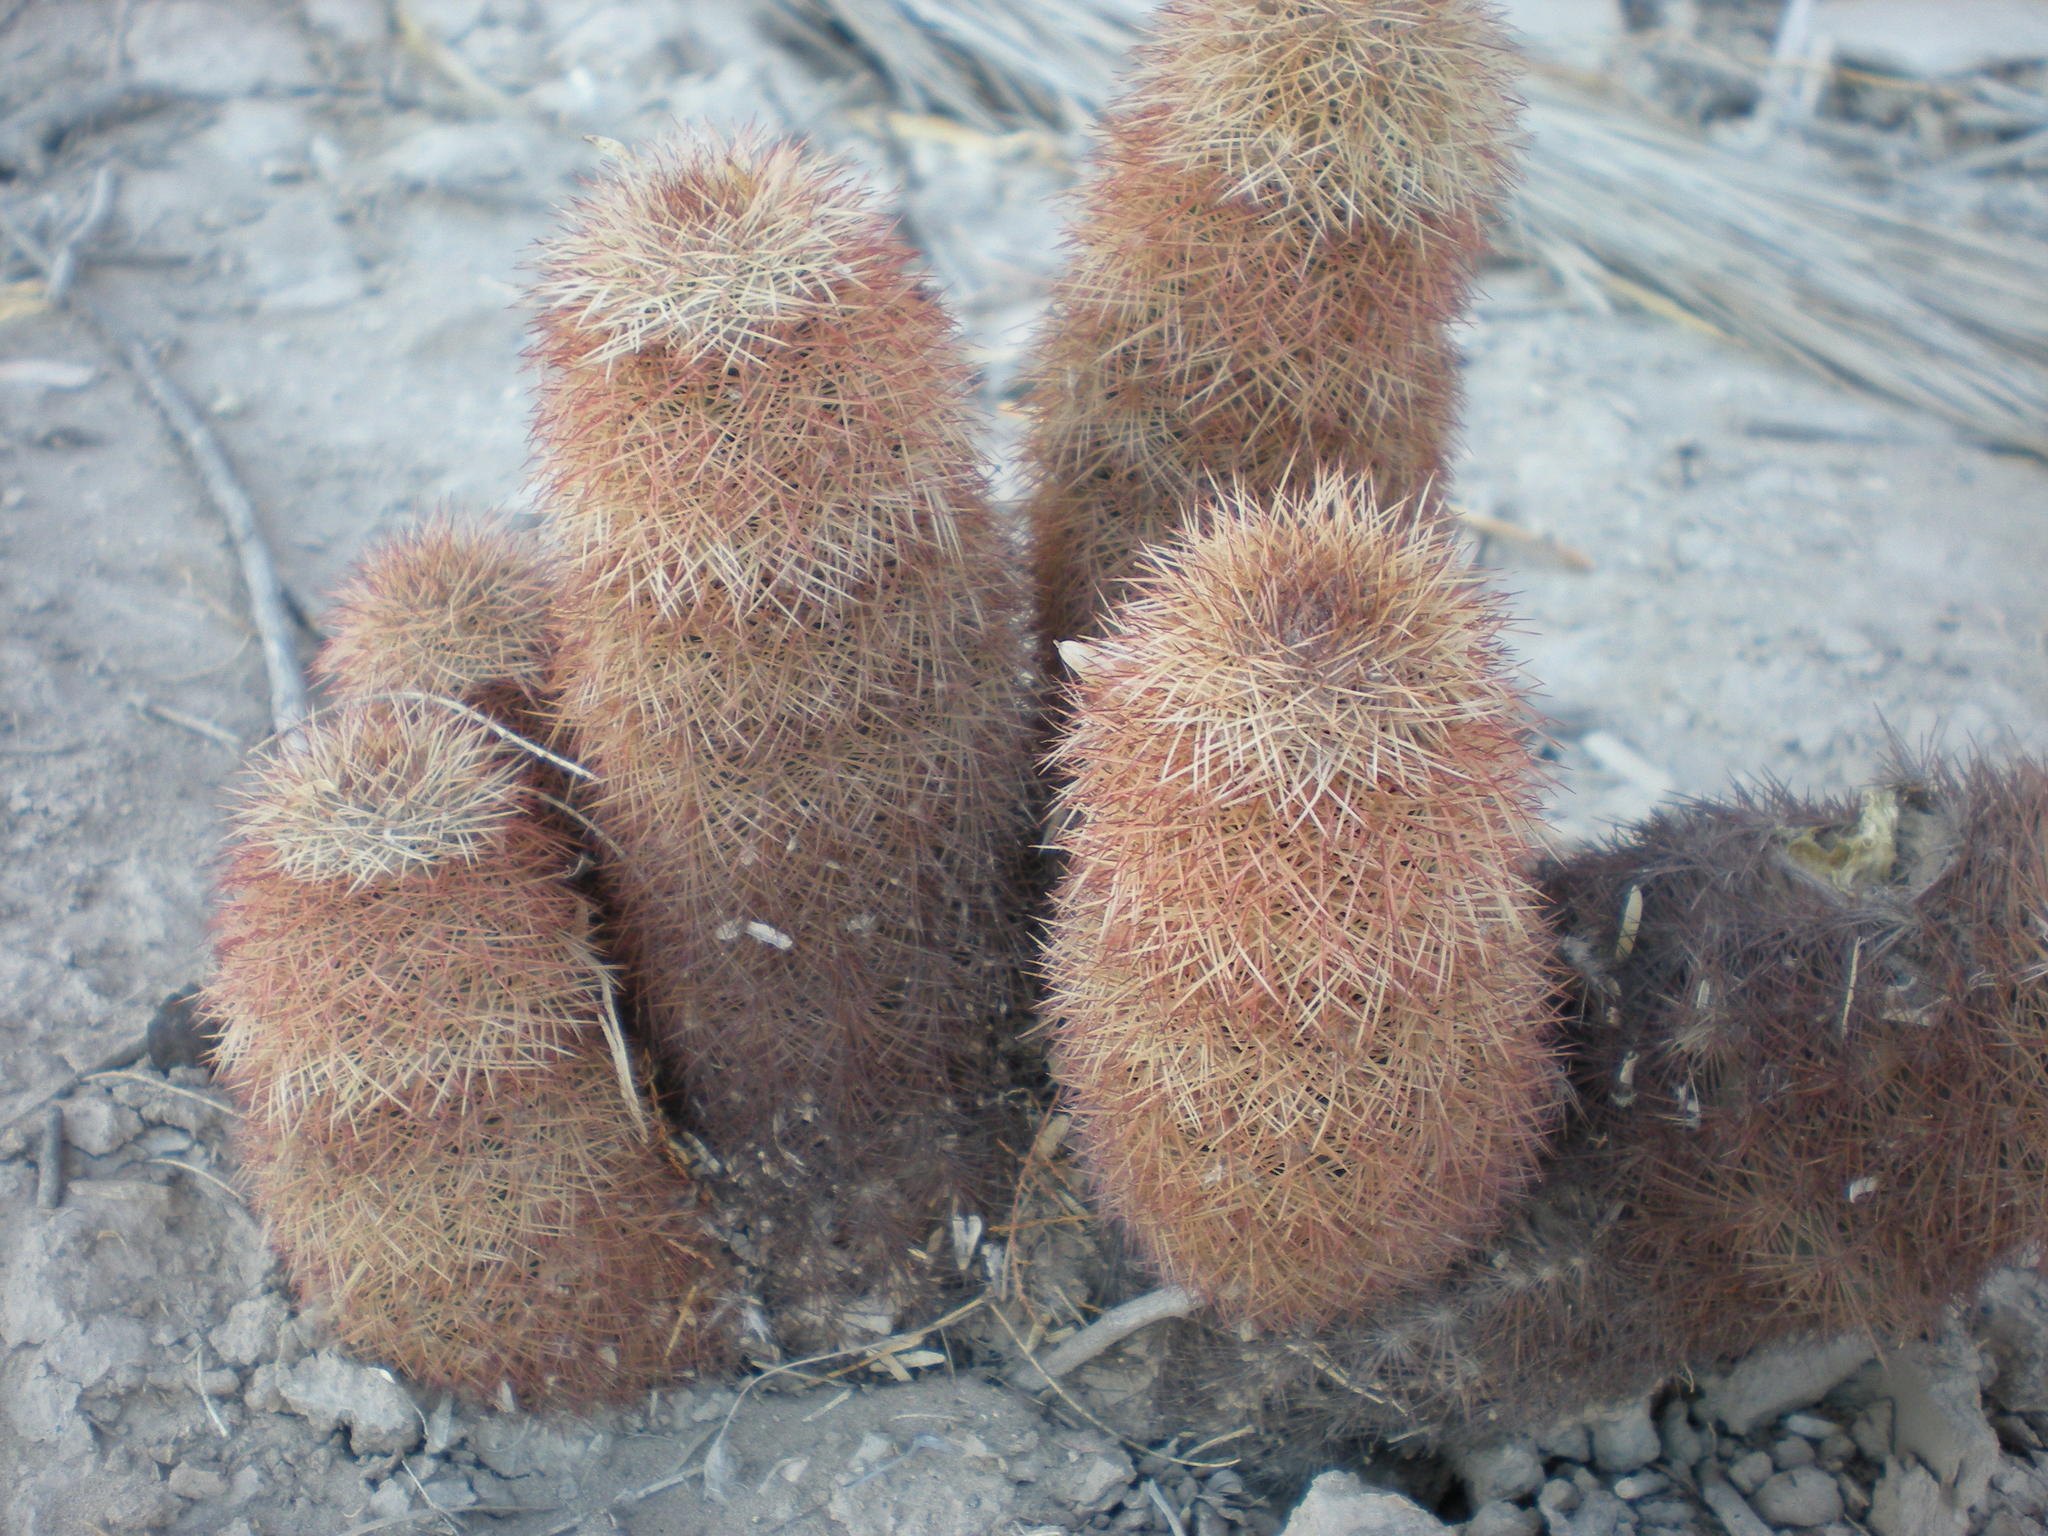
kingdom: Plantae
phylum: Tracheophyta
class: Magnoliopsida
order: Caryophyllales
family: Cactaceae
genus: Echinocereus
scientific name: Echinocereus dasyacanthus
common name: Spiny hedgehog cactus
